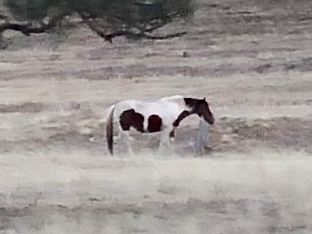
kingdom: Animalia
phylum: Chordata
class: Mammalia
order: Perissodactyla
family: Equidae
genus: Equus
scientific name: Equus caballus
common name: Horse
